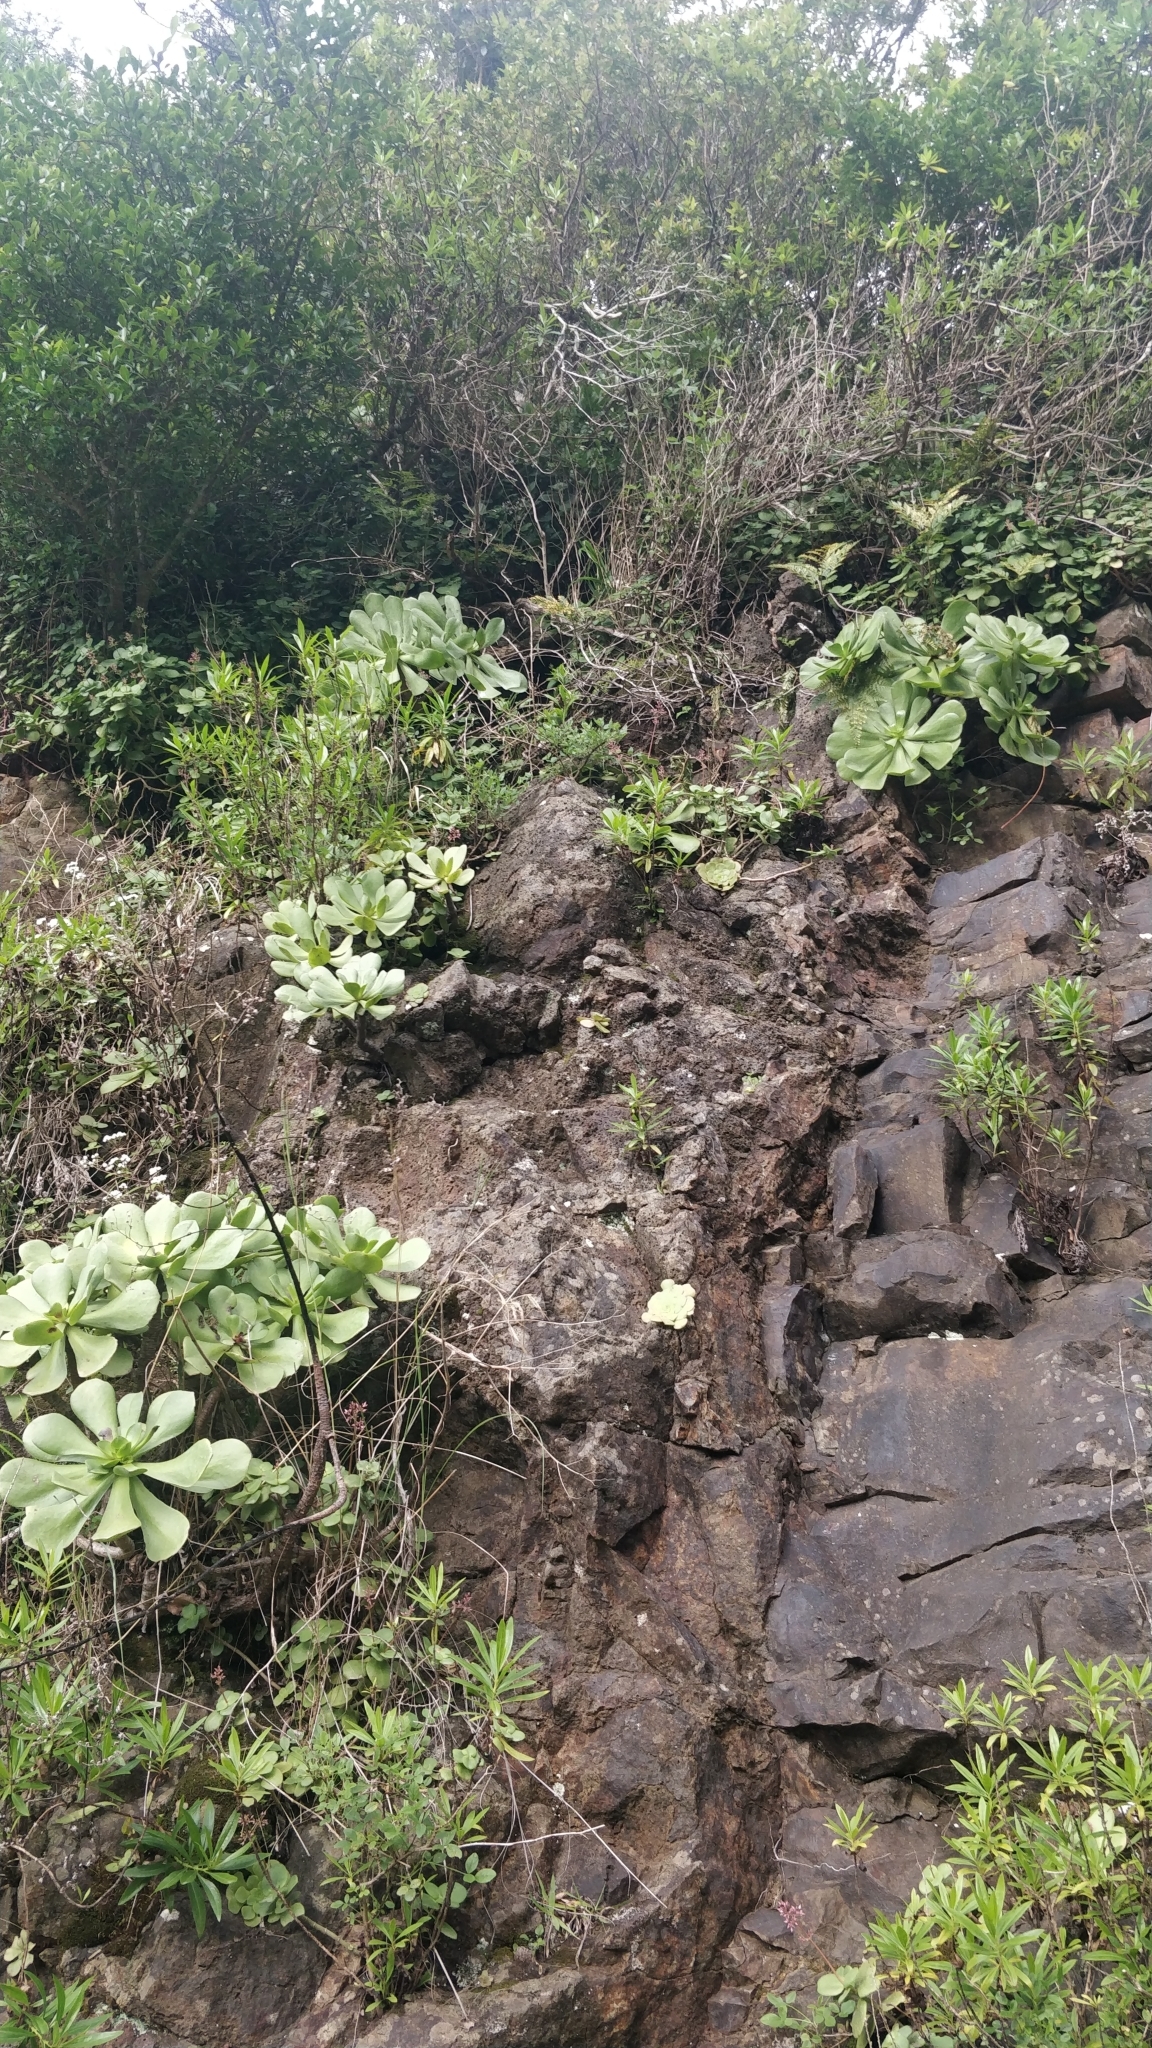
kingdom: Plantae
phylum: Tracheophyta
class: Magnoliopsida
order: Saxifragales
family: Crassulaceae
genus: Aeonium
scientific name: Aeonium glutinosum
